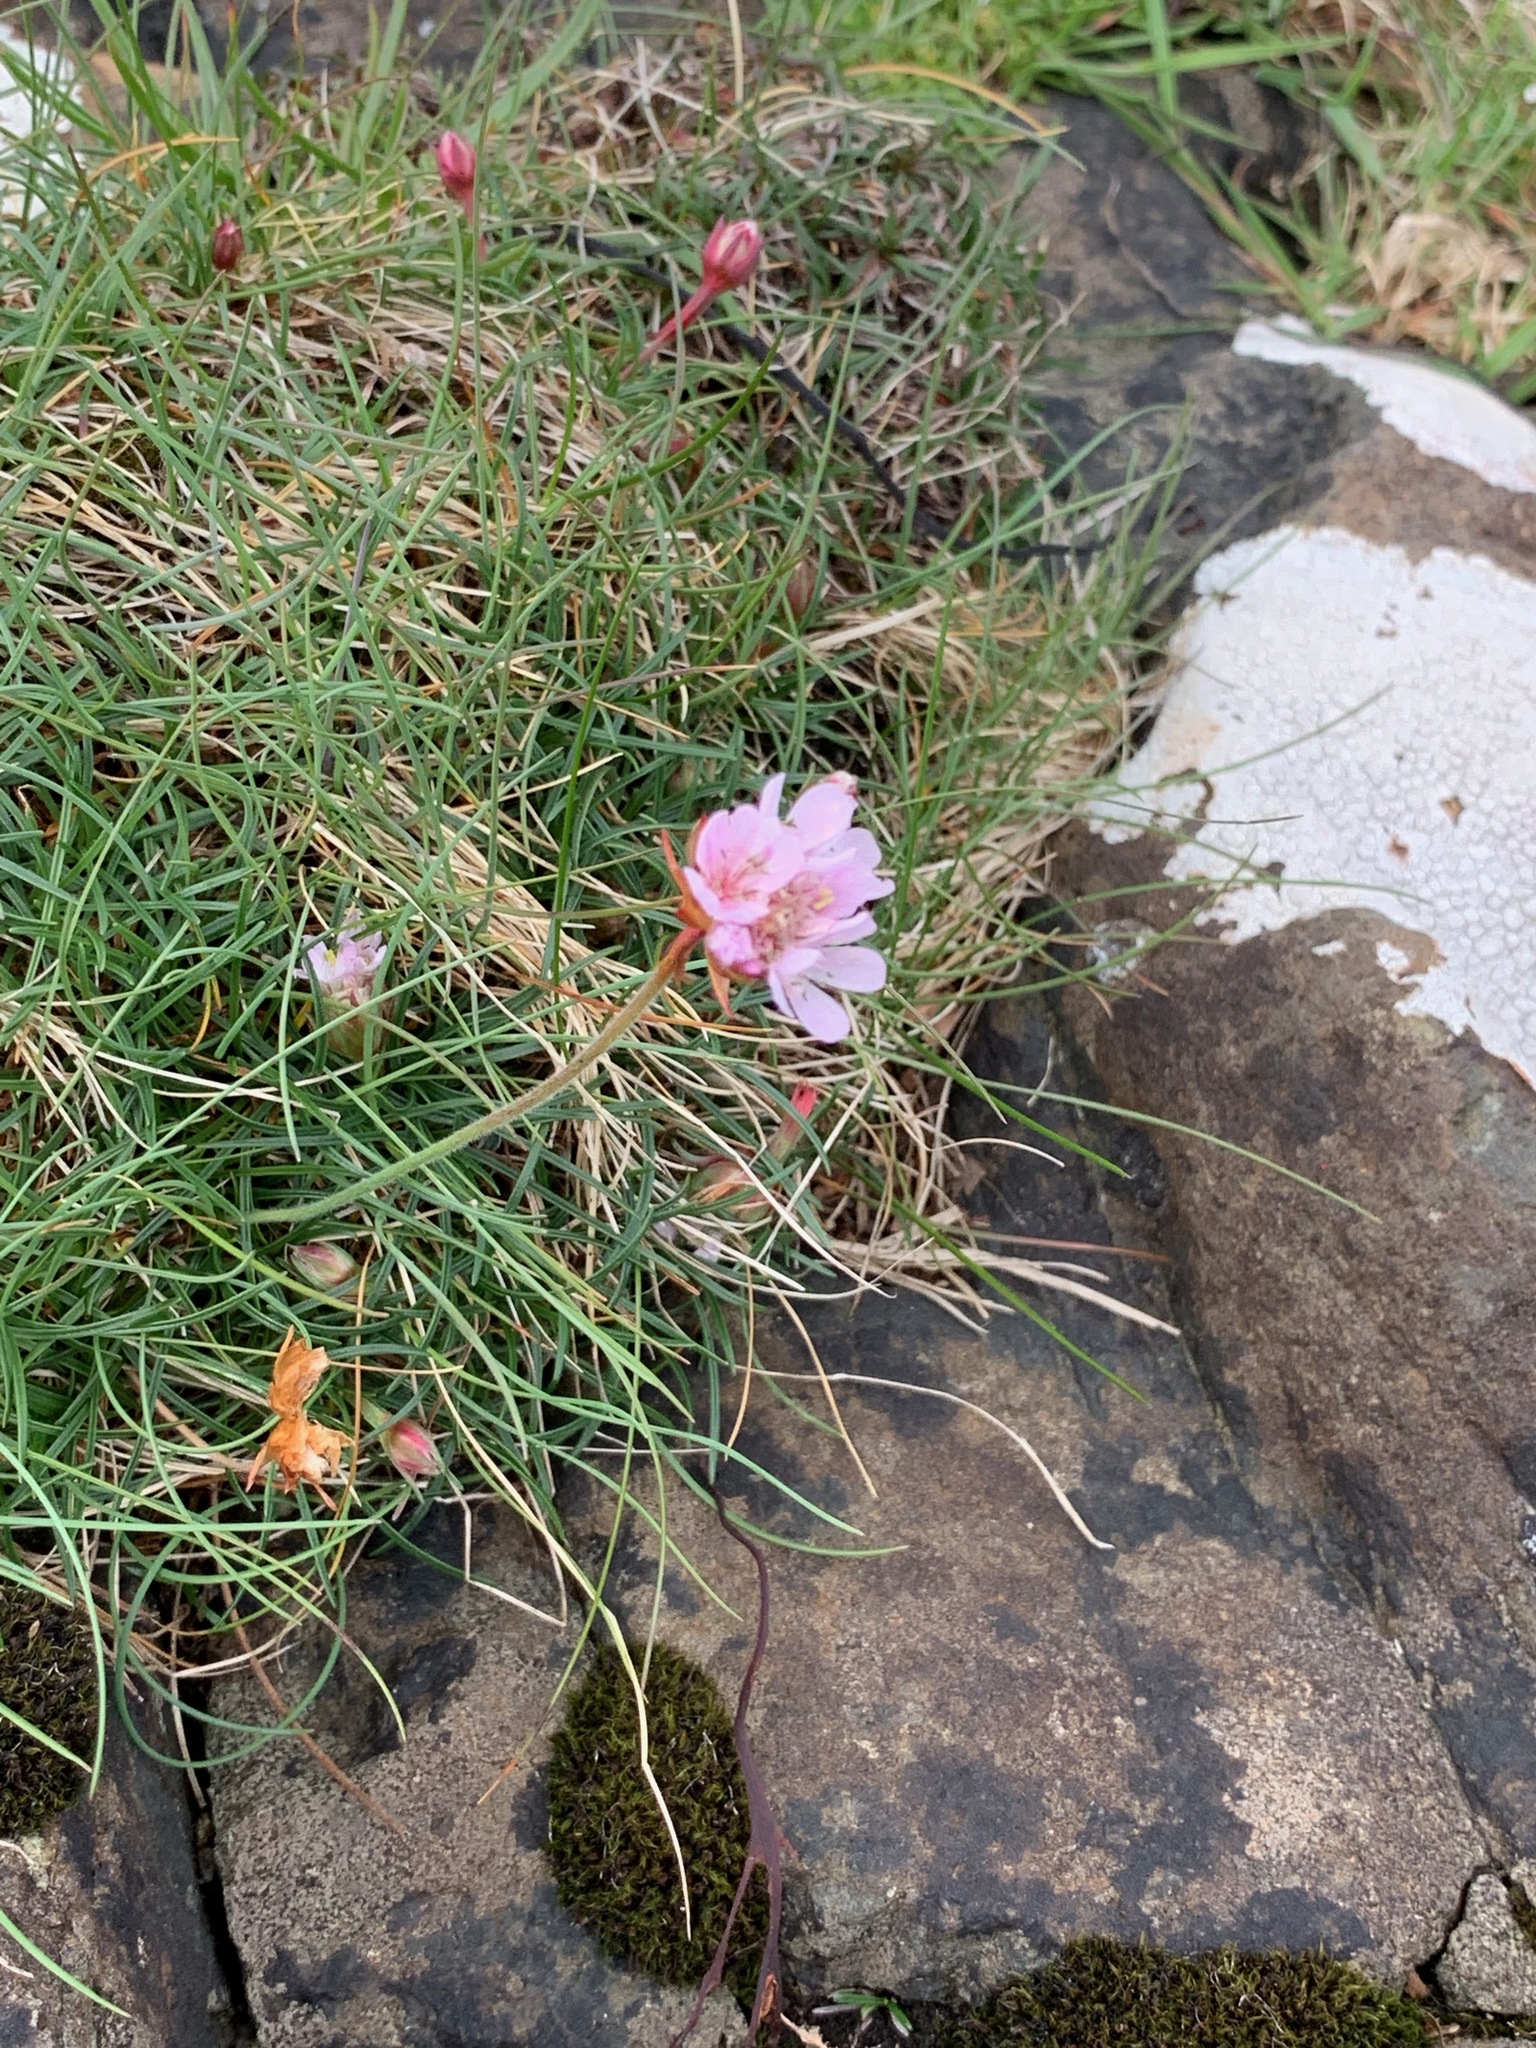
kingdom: Plantae
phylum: Tracheophyta
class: Magnoliopsida
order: Caryophyllales
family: Plumbaginaceae
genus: Armeria
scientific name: Armeria maritima
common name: Thrift
